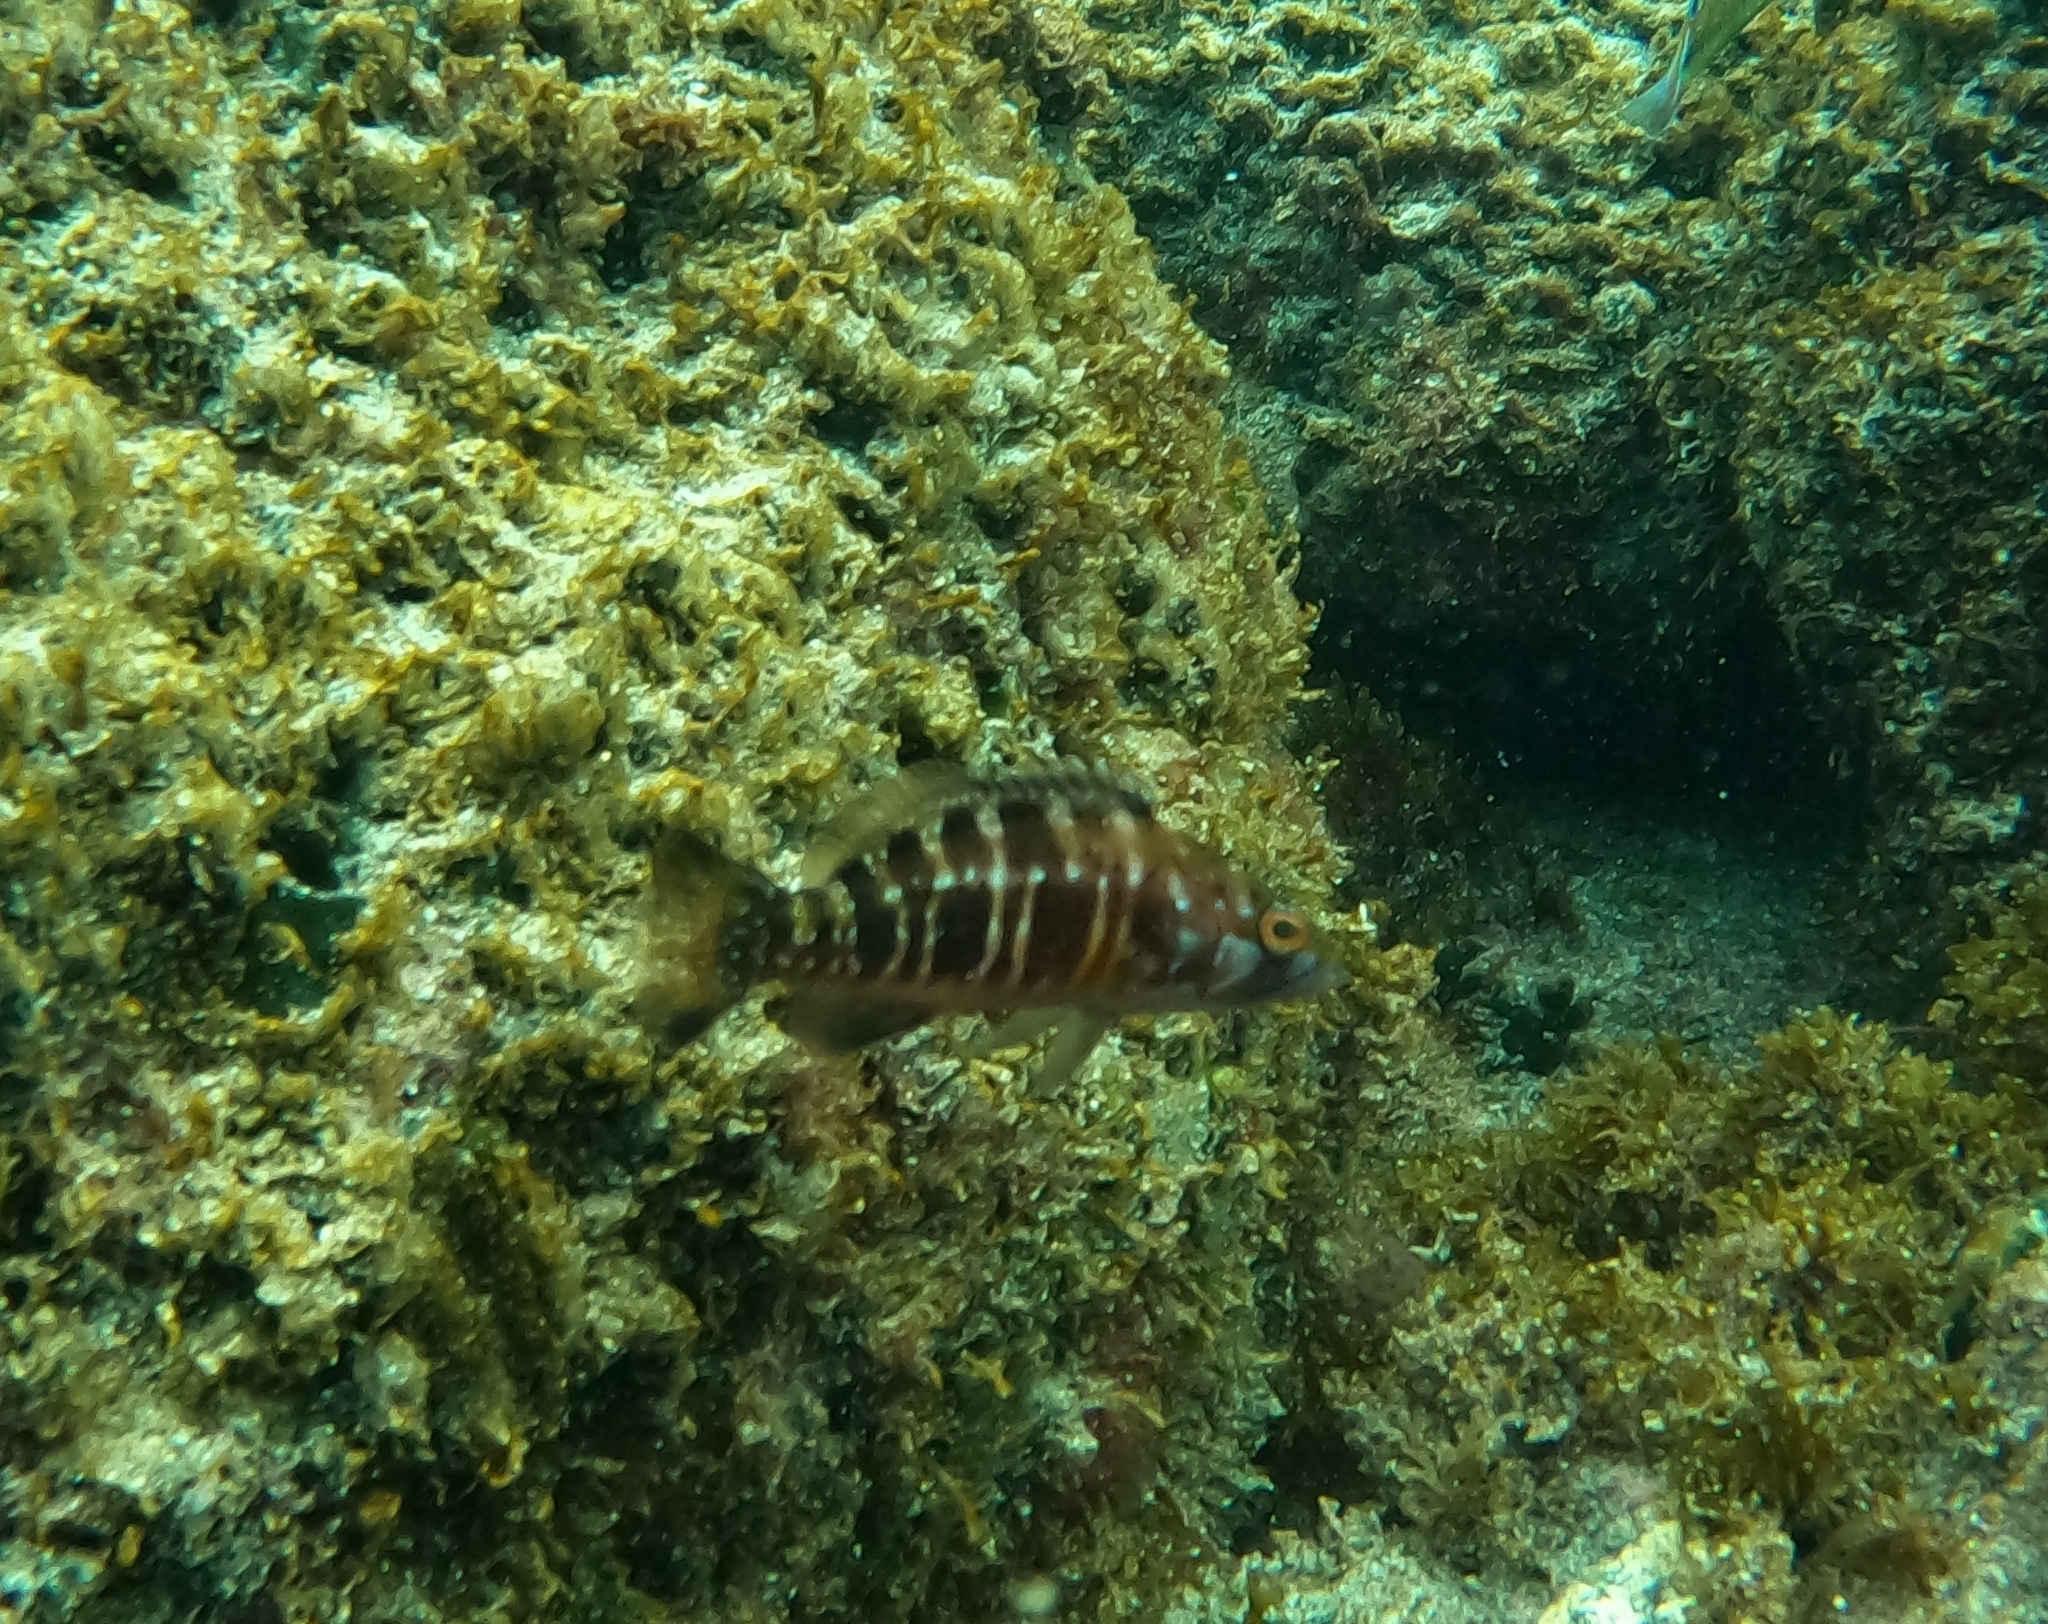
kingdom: Animalia
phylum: Chordata
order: Perciformes
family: Serranidae
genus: Serranus
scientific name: Serranus atricauda
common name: Blacktail comber
